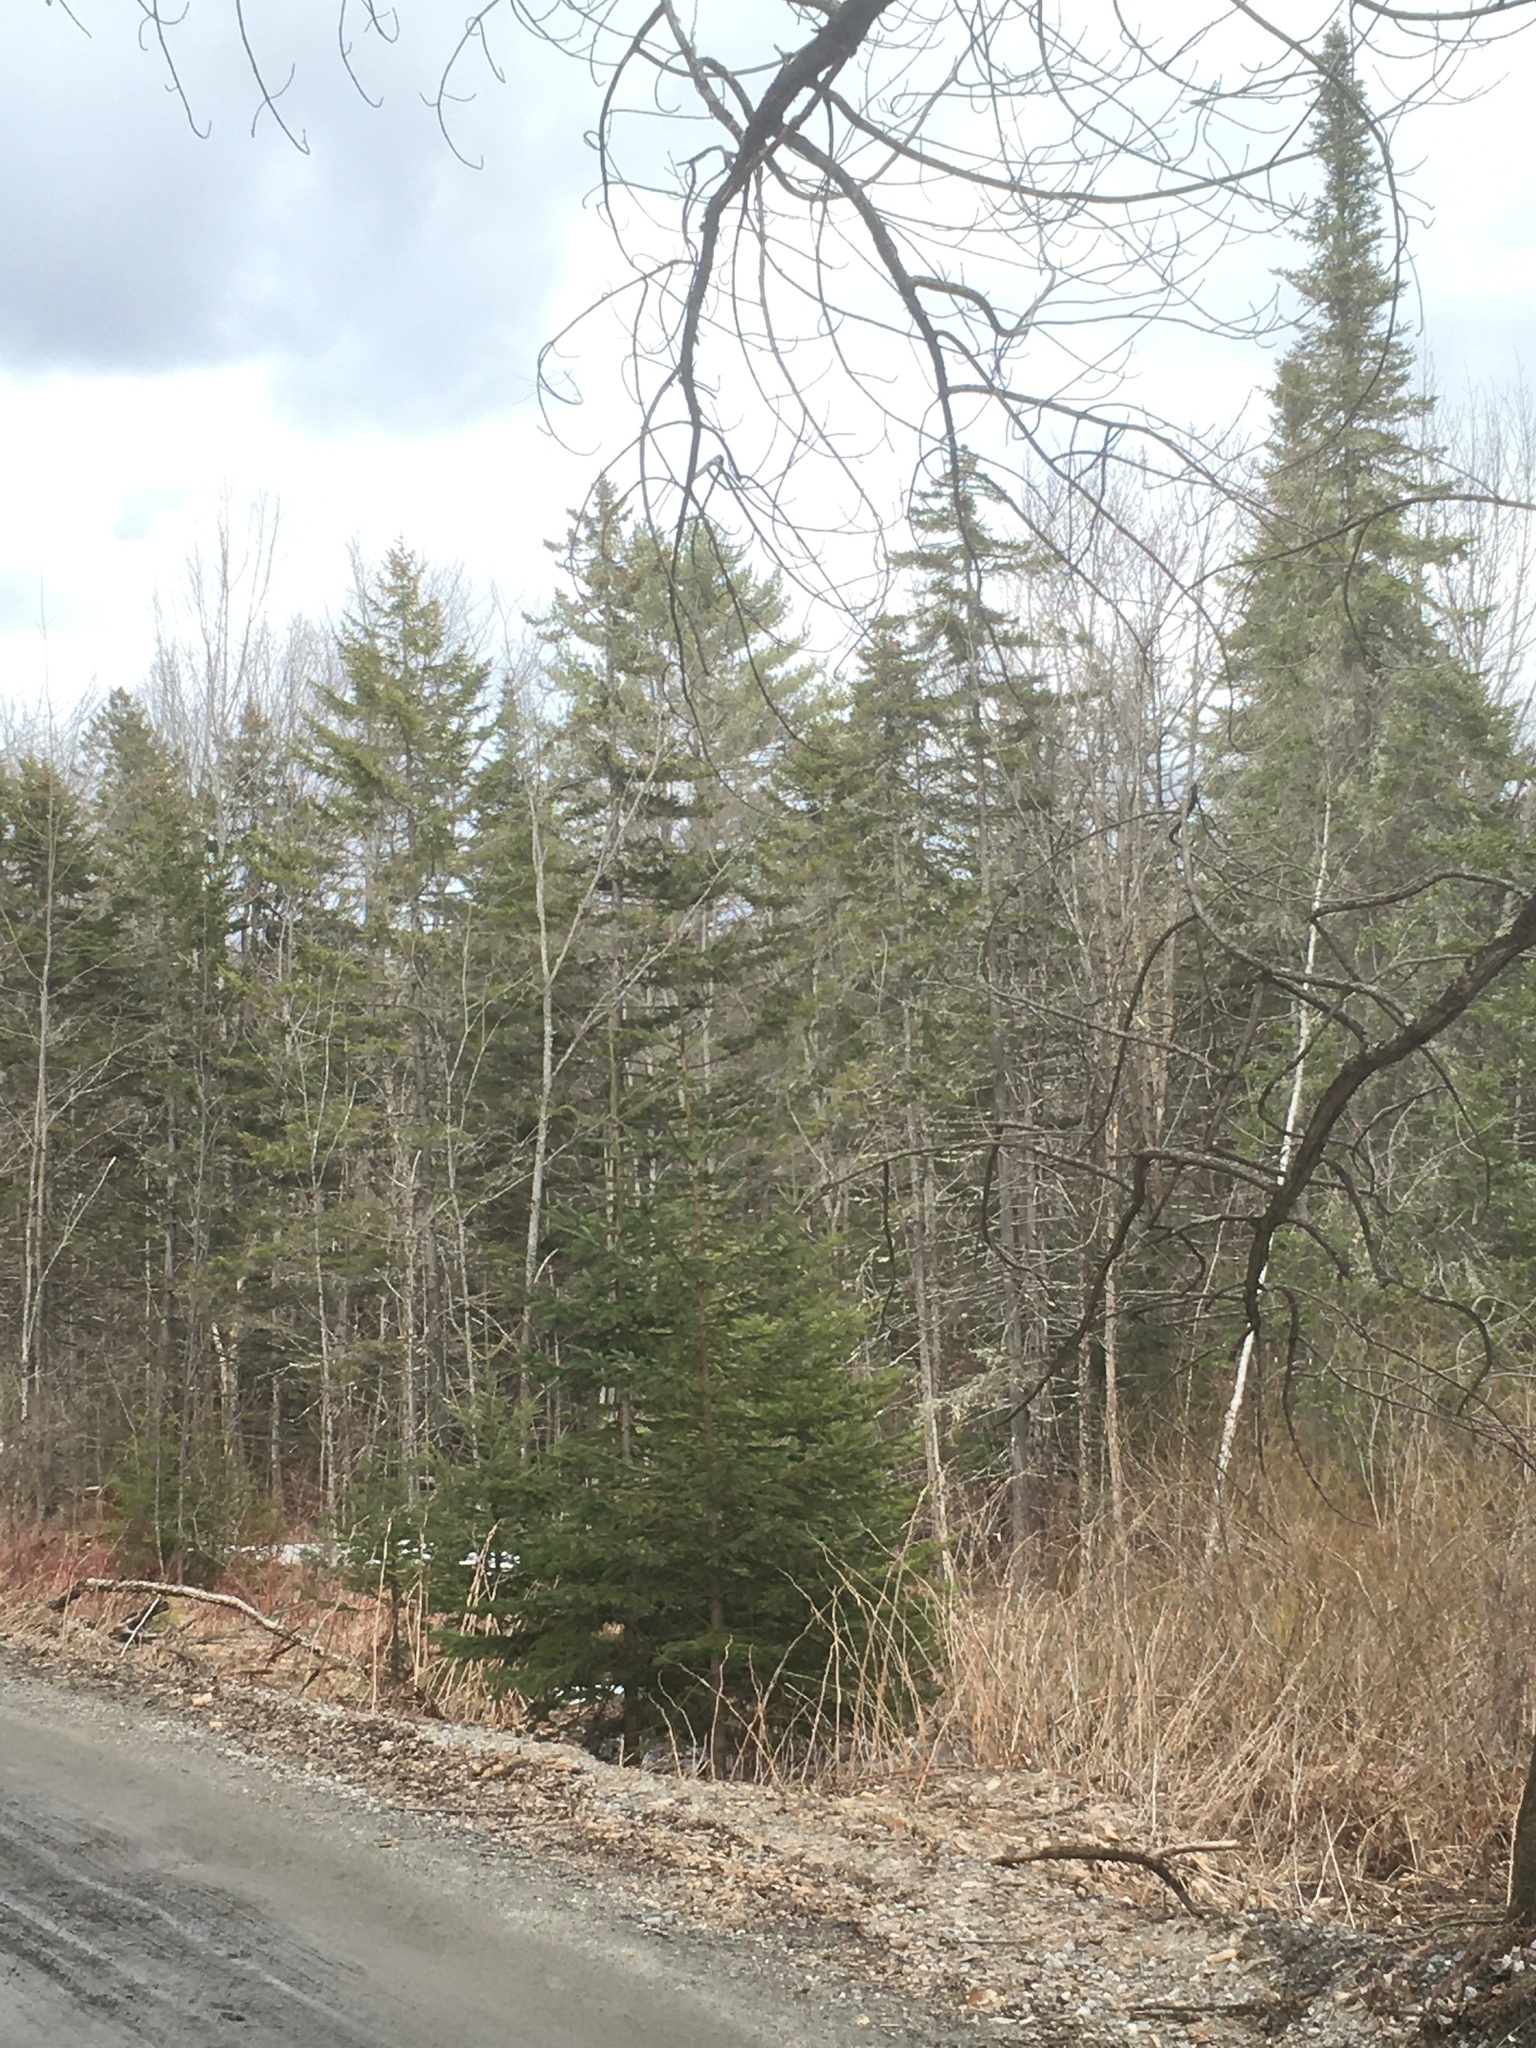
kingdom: Plantae
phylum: Tracheophyta
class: Pinopsida
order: Pinales
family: Pinaceae
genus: Abies
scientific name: Abies balsamea
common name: Balsam fir
